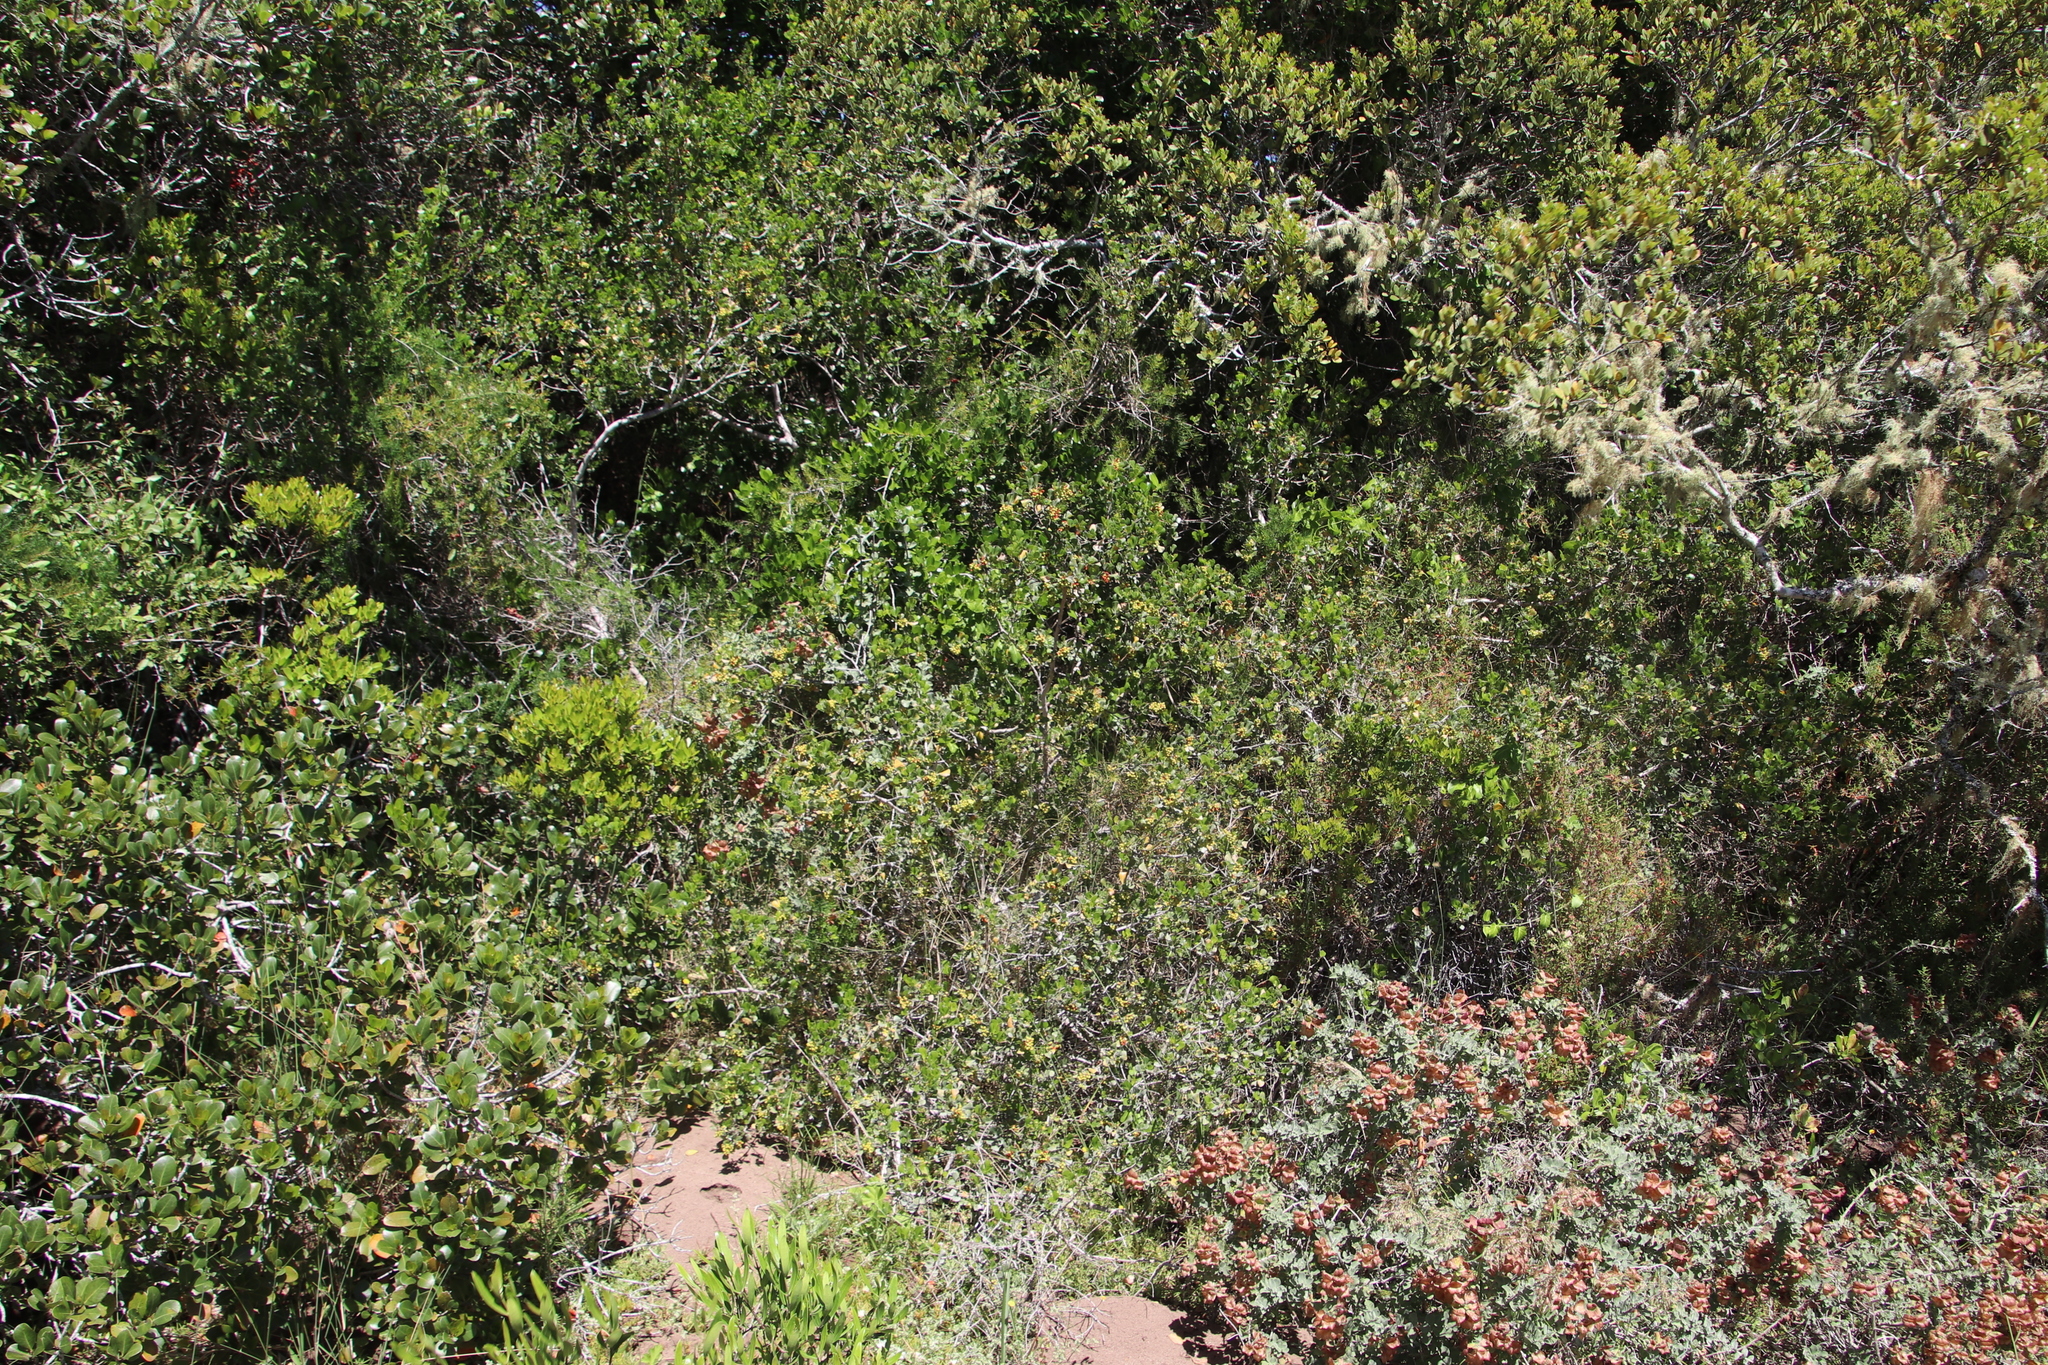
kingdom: Plantae
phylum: Tracheophyta
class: Magnoliopsida
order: Sapindales
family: Anacardiaceae
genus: Searsia
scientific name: Searsia glauca
